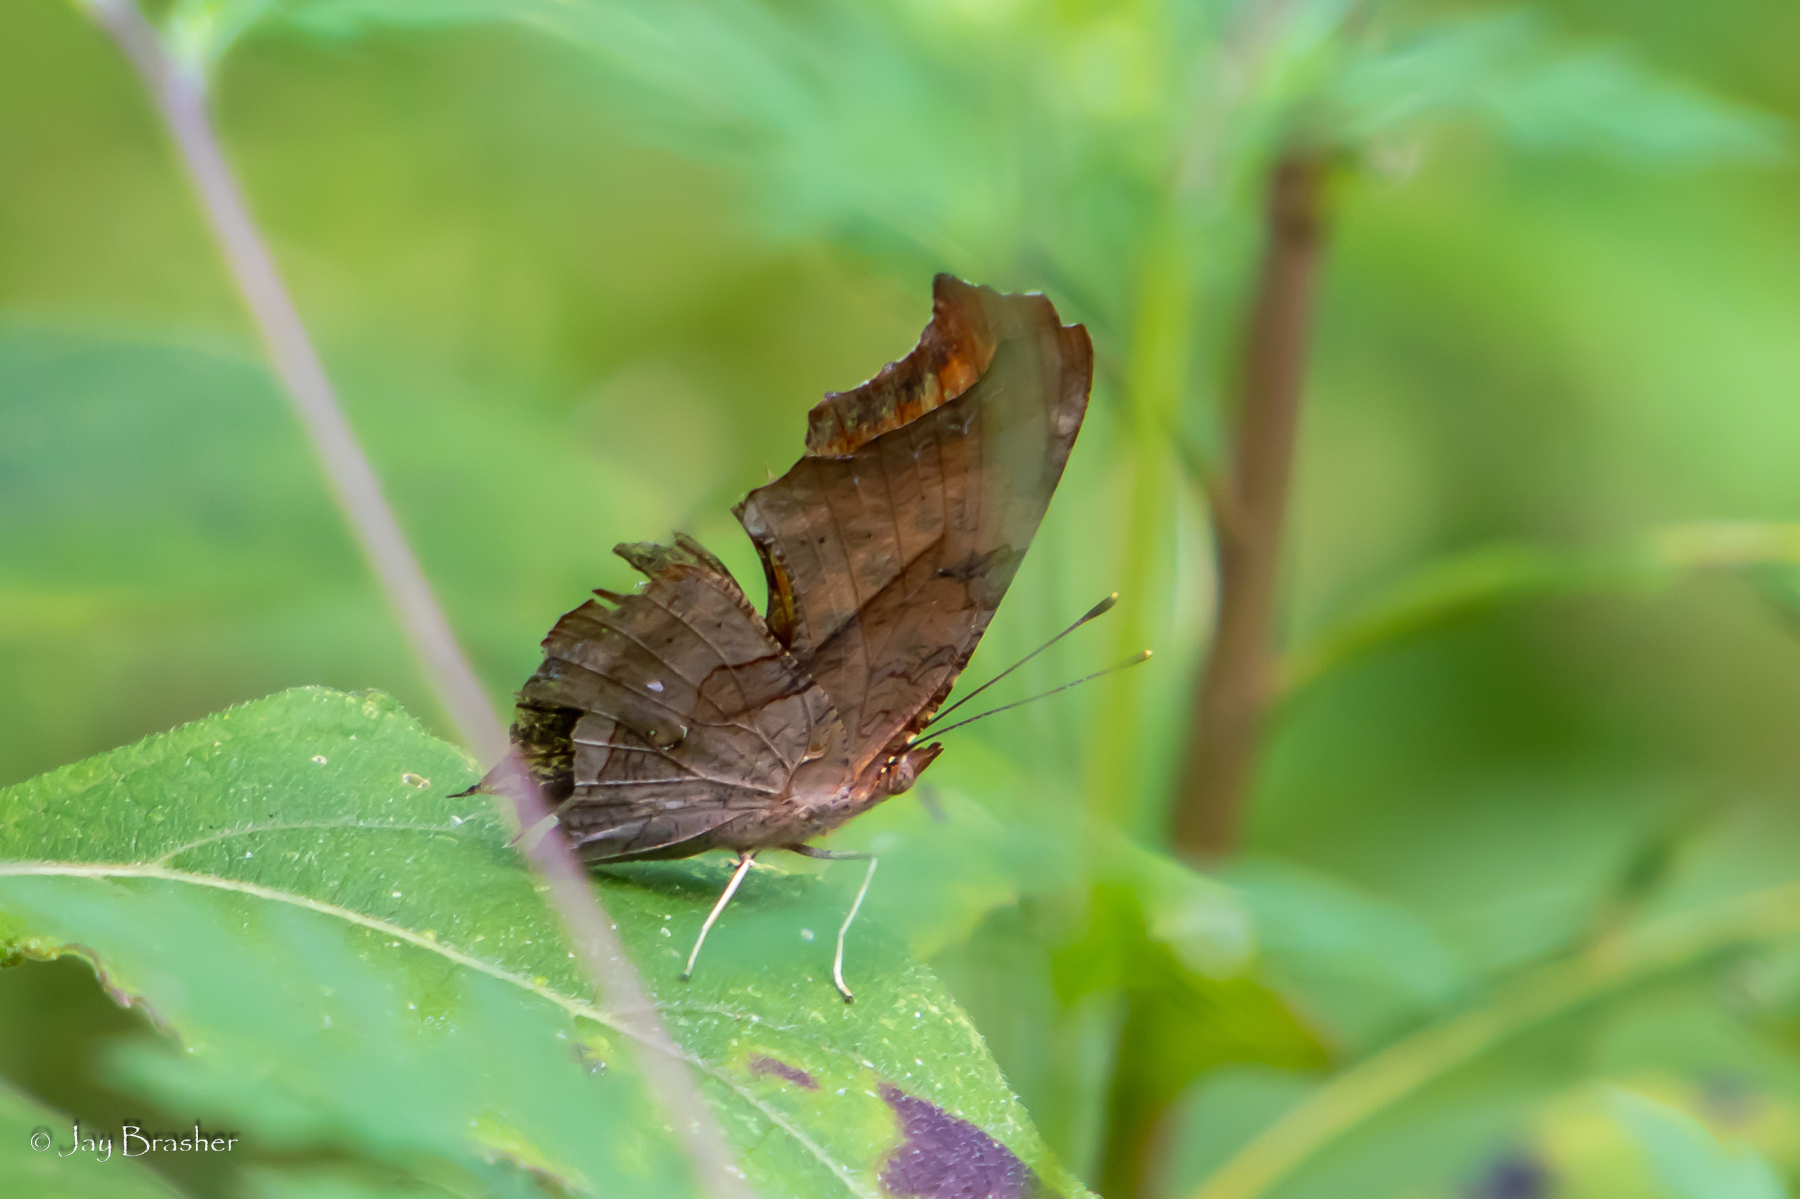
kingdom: Animalia
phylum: Arthropoda
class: Insecta
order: Lepidoptera
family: Nymphalidae
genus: Polygonia
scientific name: Polygonia interrogationis
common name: Question mark
